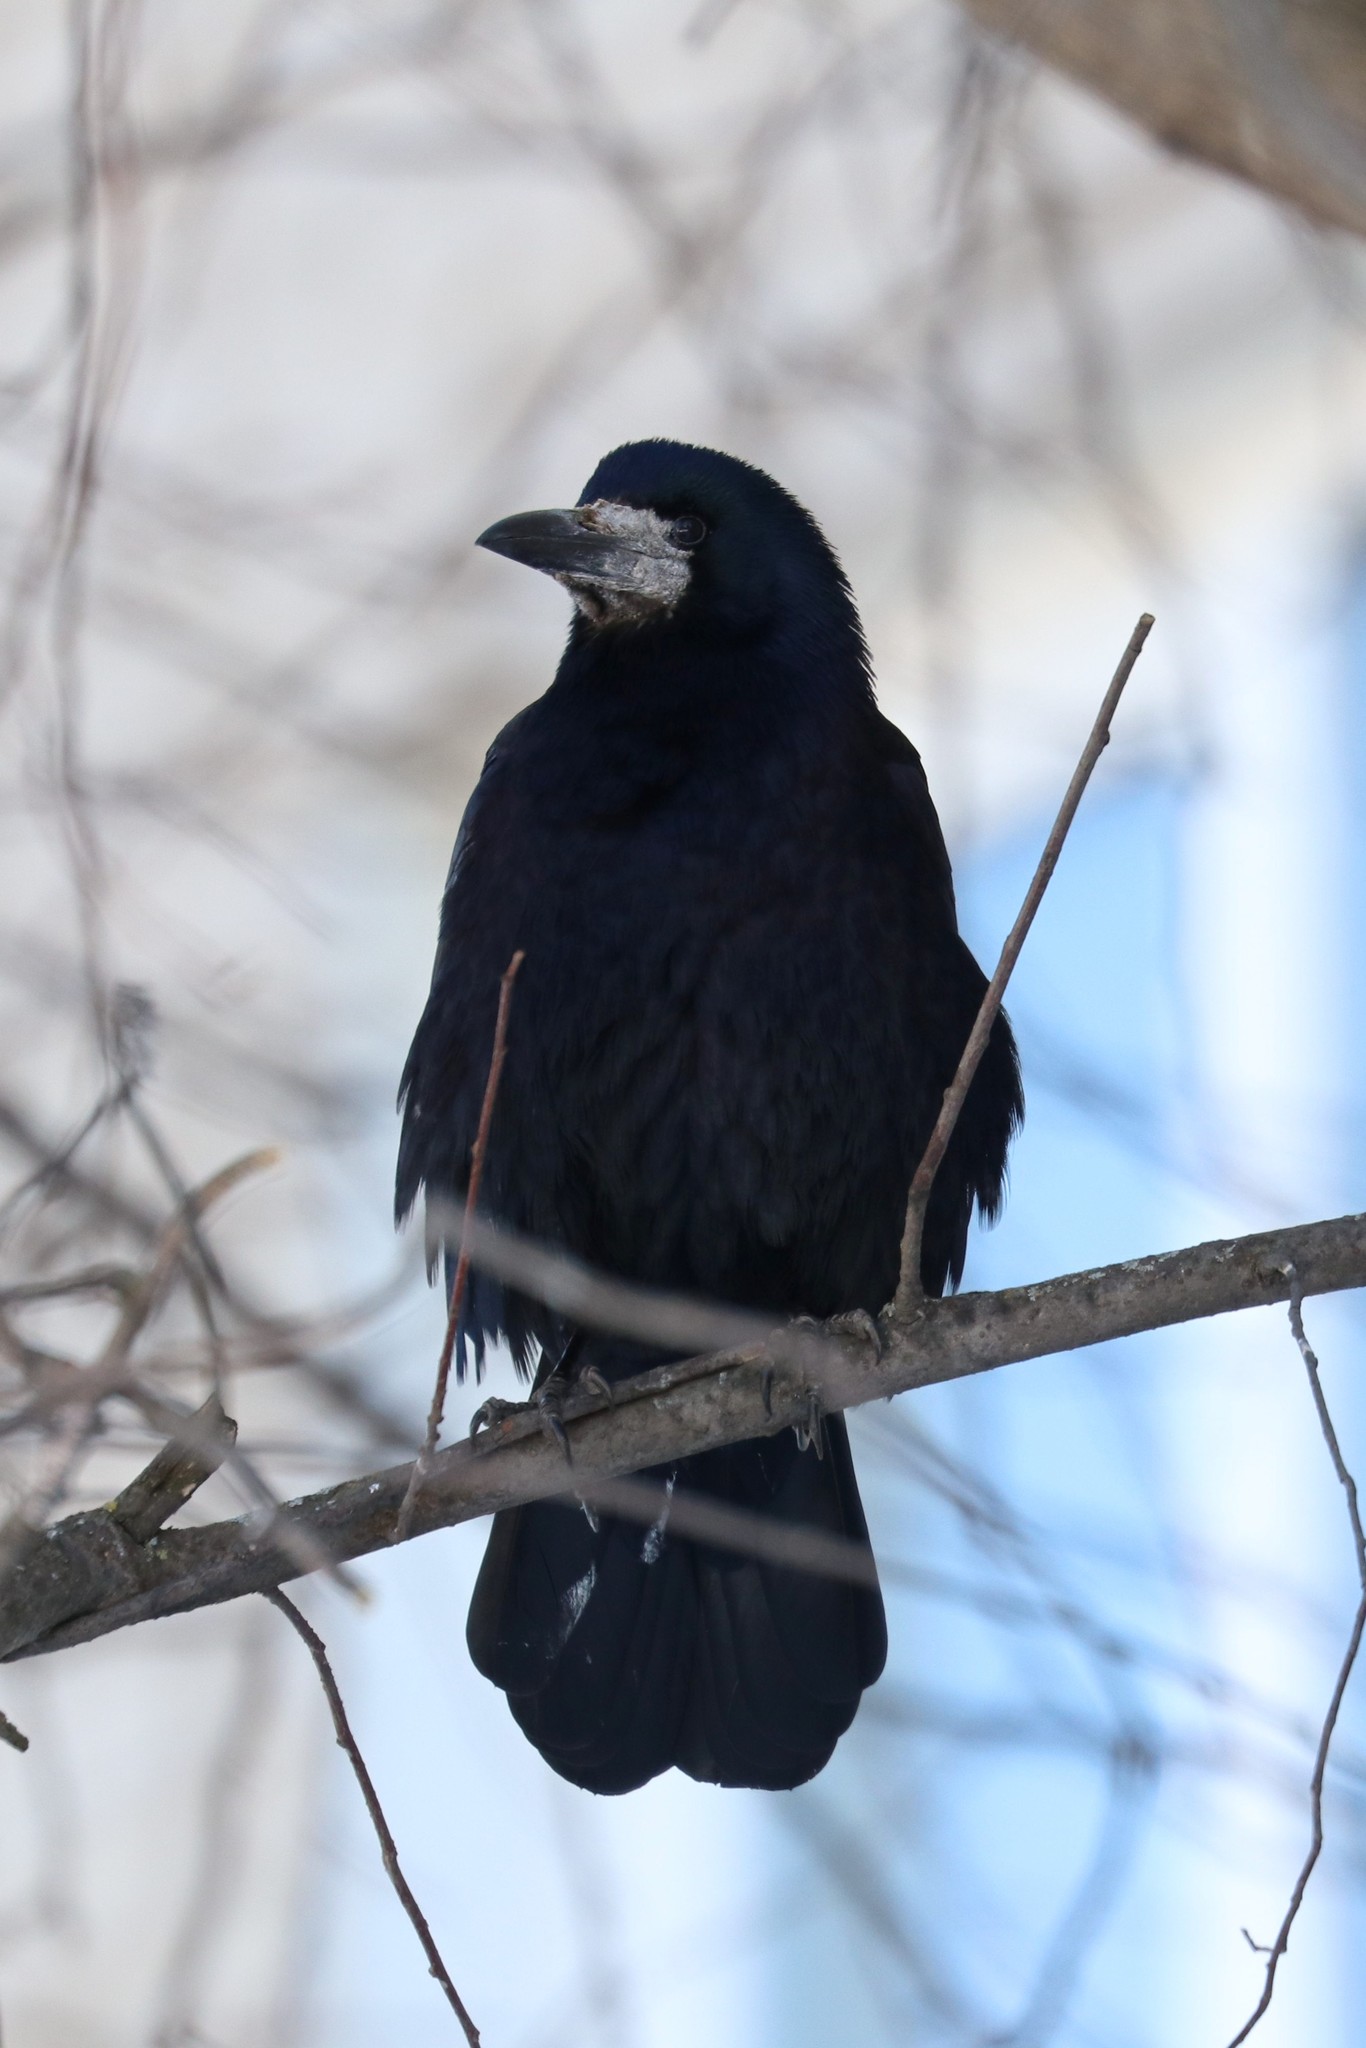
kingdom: Animalia
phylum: Chordata
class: Aves
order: Passeriformes
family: Corvidae
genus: Corvus
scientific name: Corvus frugilegus
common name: Rook
